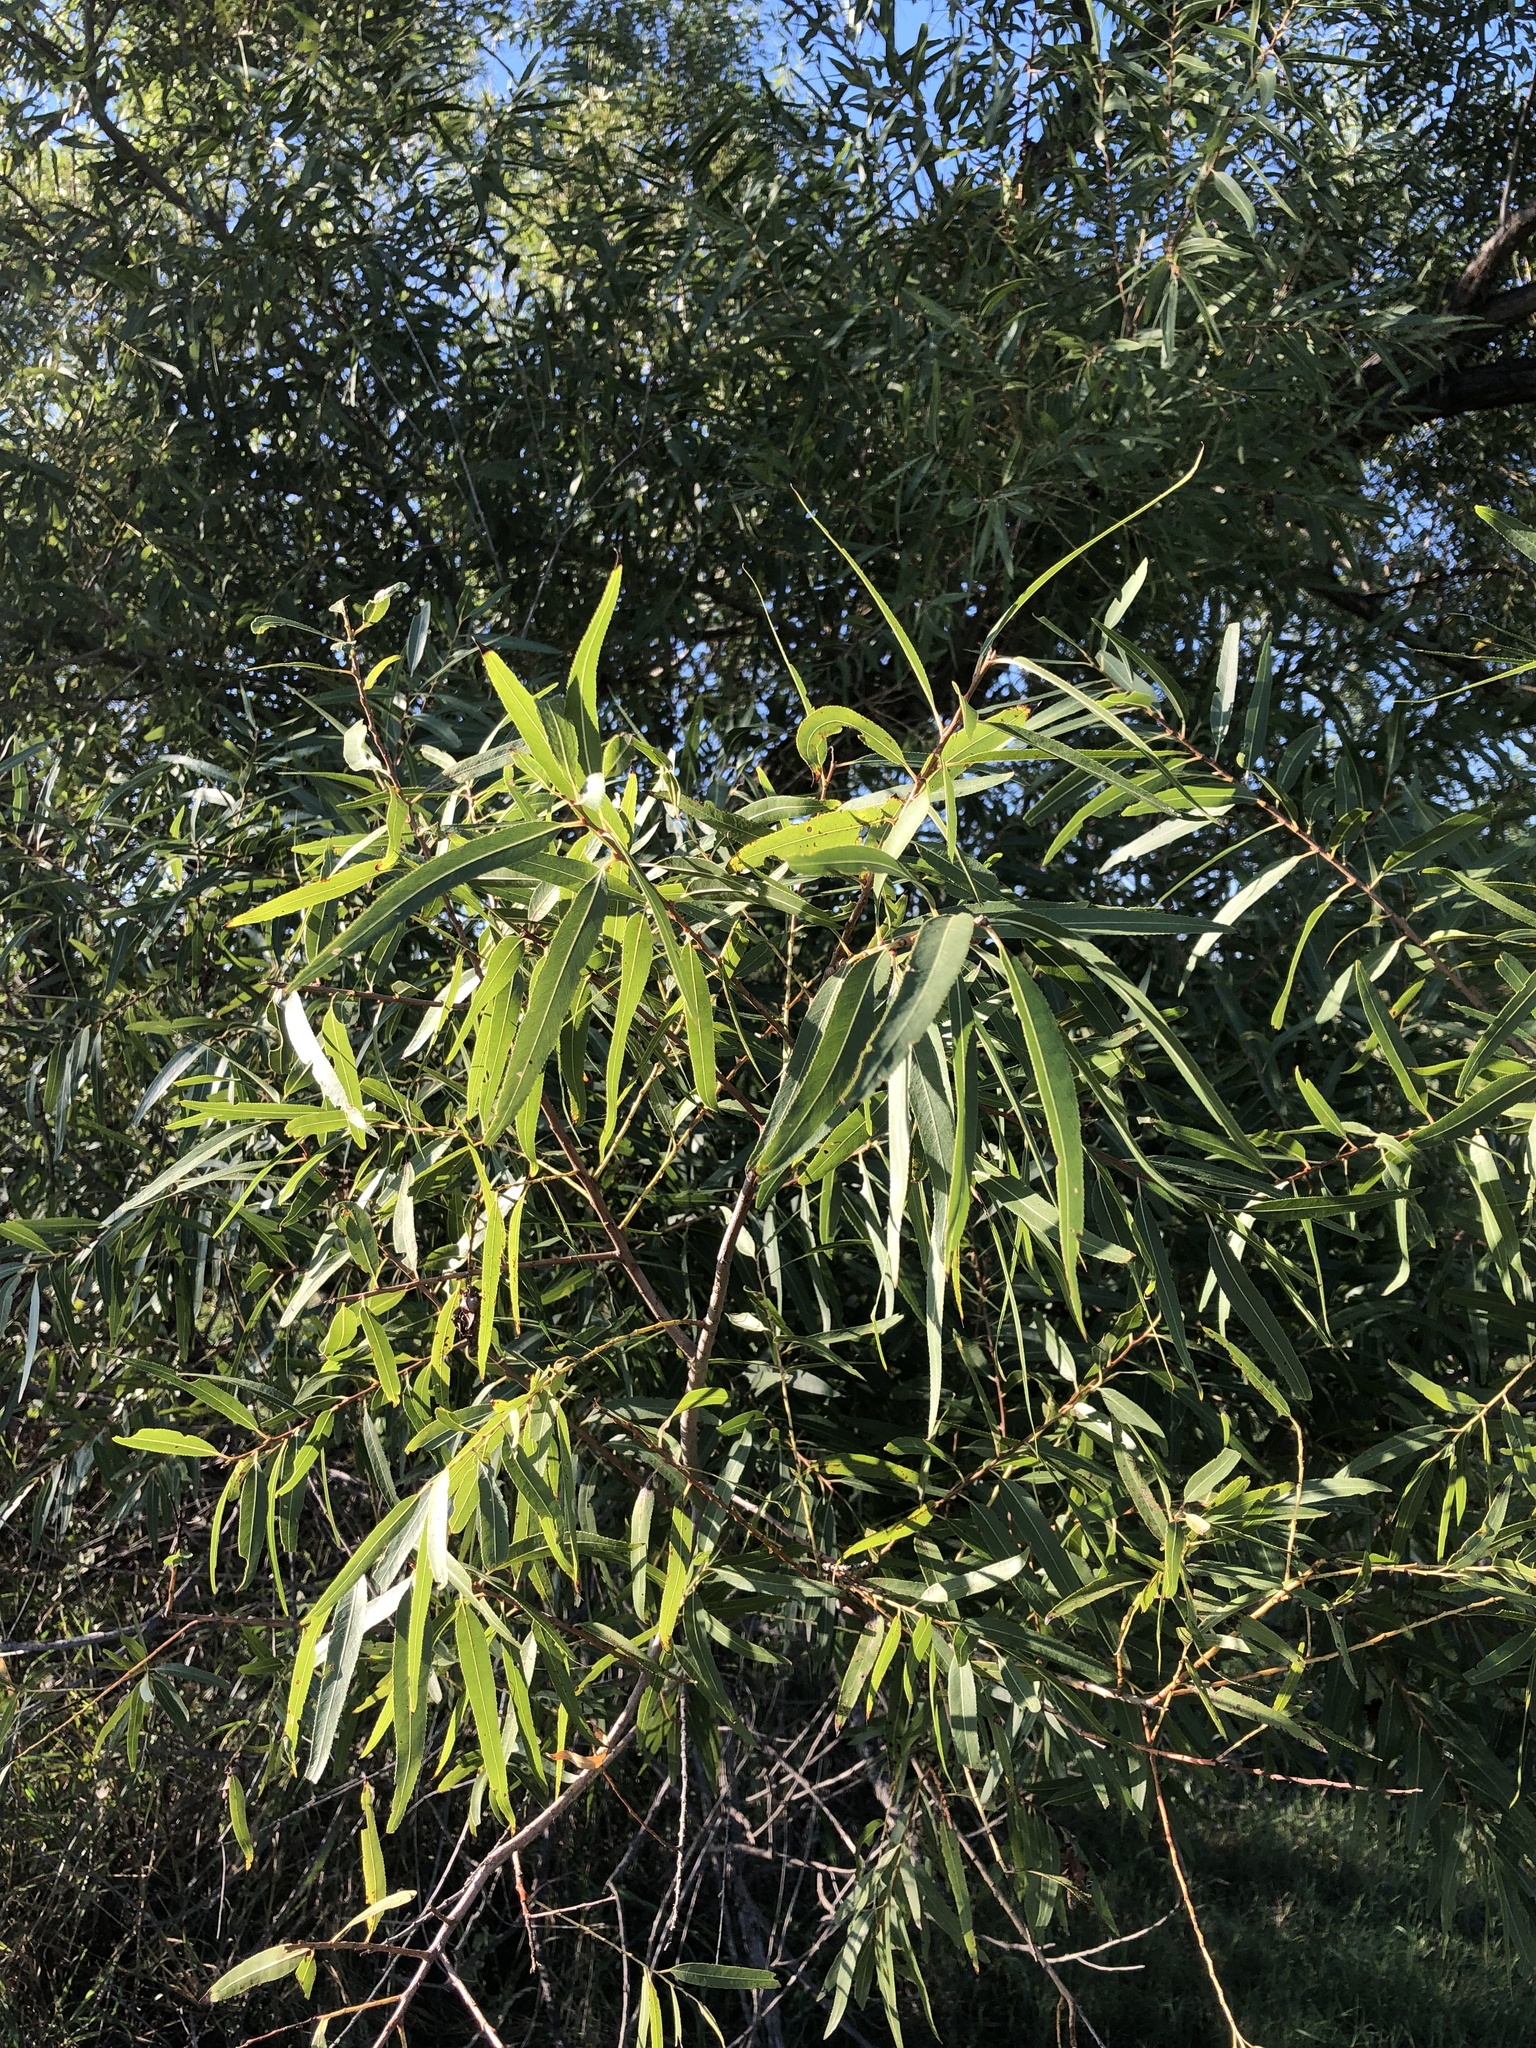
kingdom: Plantae
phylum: Tracheophyta
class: Magnoliopsida
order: Malpighiales
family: Salicaceae
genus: Salix
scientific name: Salix nigra
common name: Black willow
